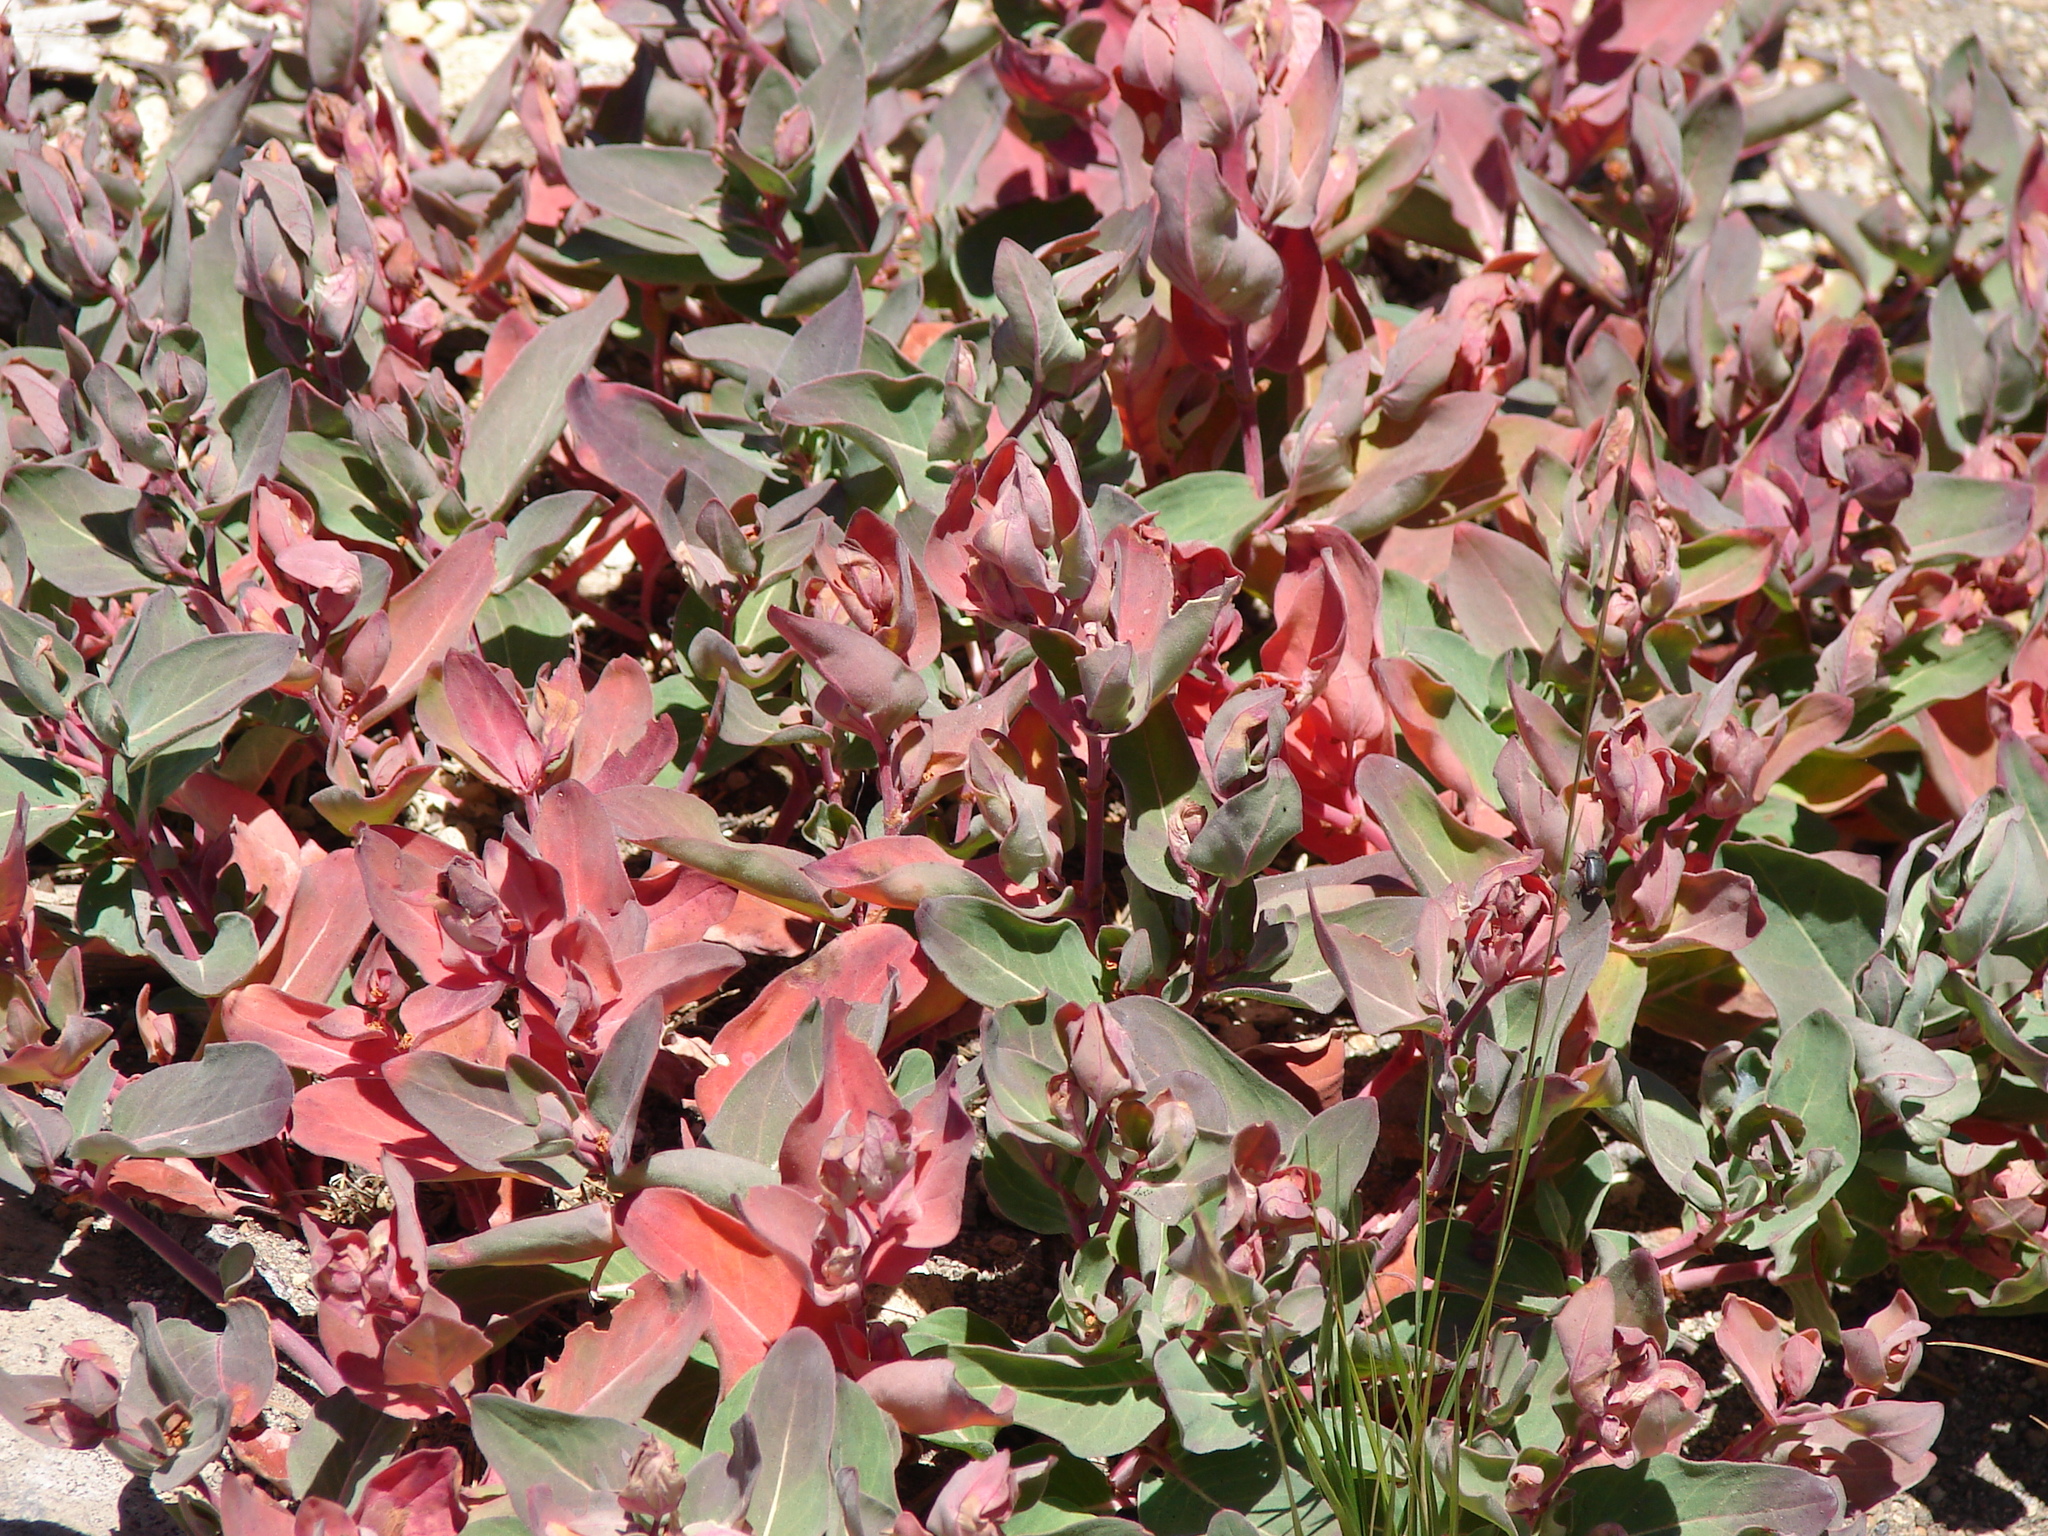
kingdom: Plantae
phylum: Tracheophyta
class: Magnoliopsida
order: Caryophyllales
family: Polygonaceae
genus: Koenigia
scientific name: Koenigia davisiae
